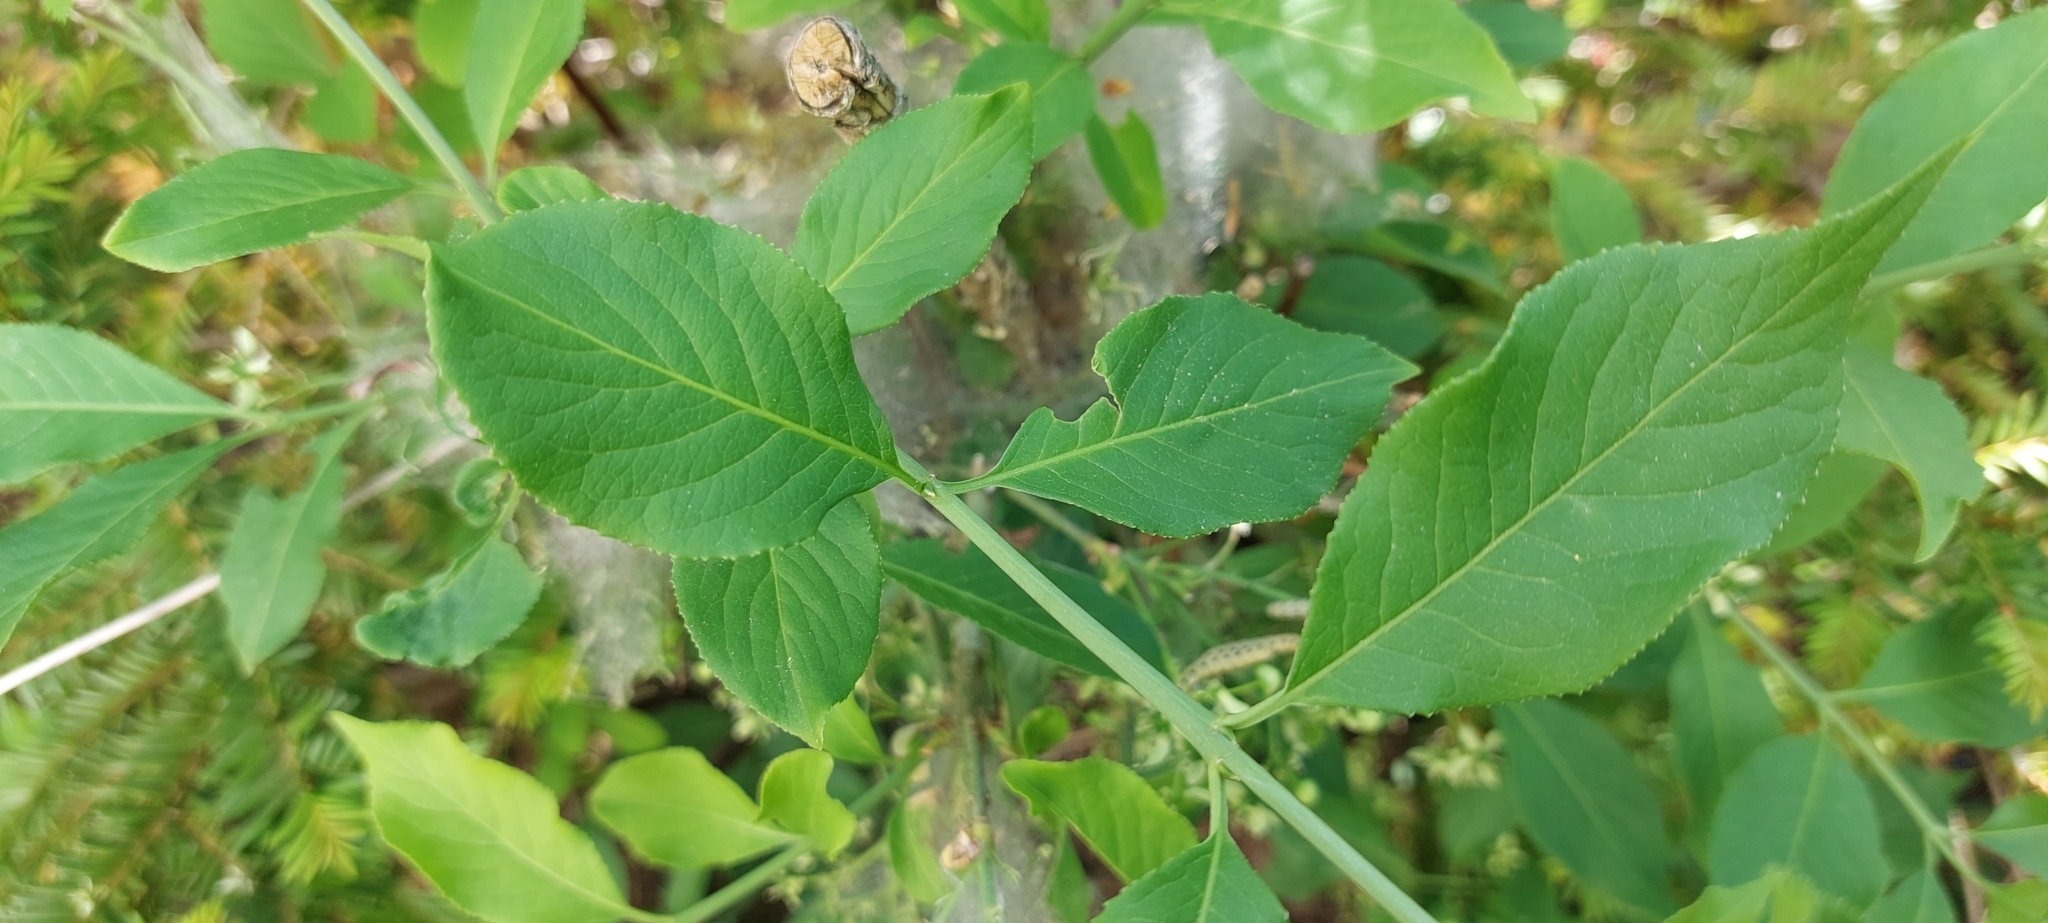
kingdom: Plantae
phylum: Tracheophyta
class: Magnoliopsida
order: Celastrales
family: Celastraceae
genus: Euonymus
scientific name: Euonymus europaeus
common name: Spindle
